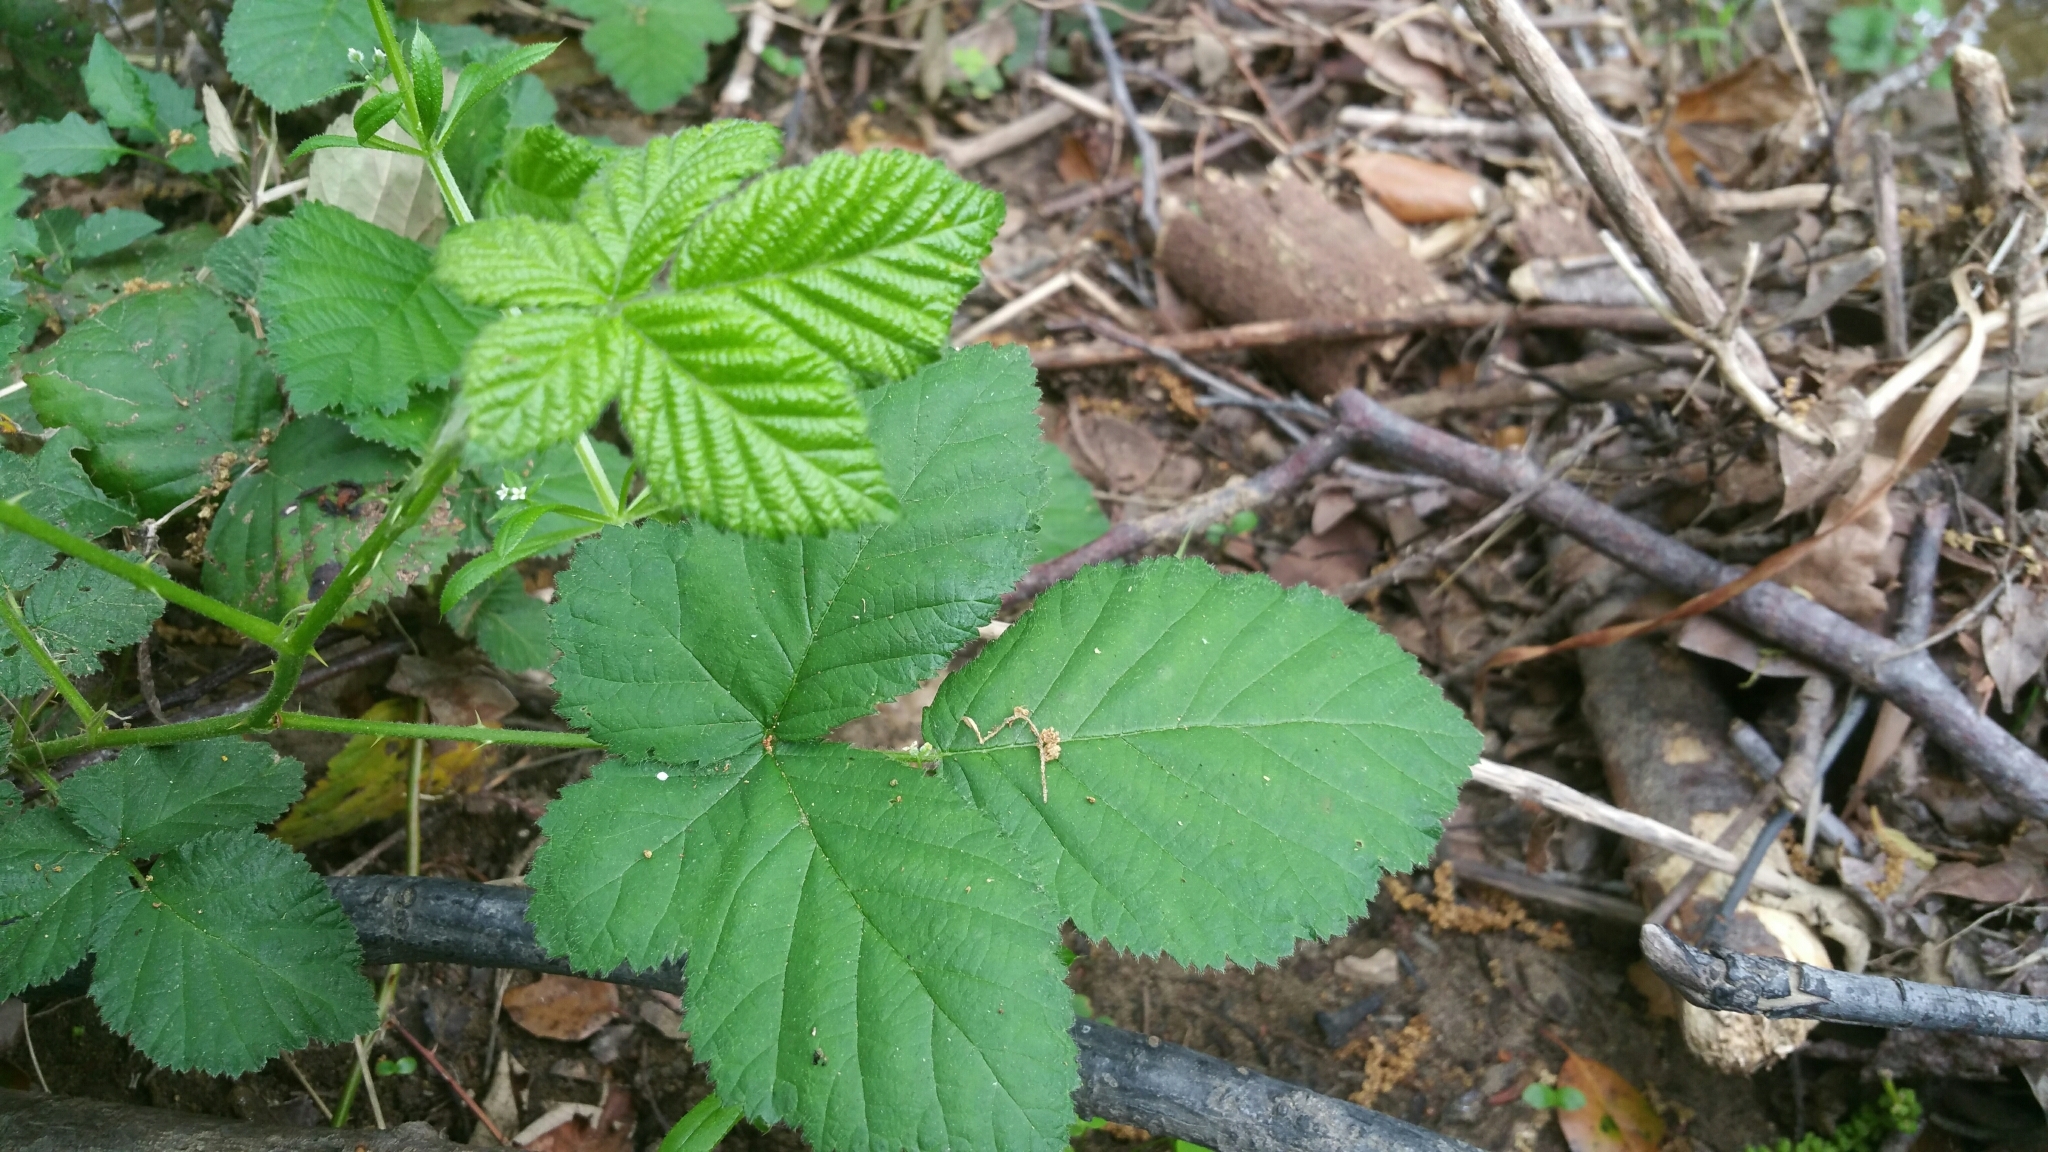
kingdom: Plantae
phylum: Tracheophyta
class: Magnoliopsida
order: Rosales
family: Rosaceae
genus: Rubus
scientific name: Rubus armeniacus
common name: Himalayan blackberry
